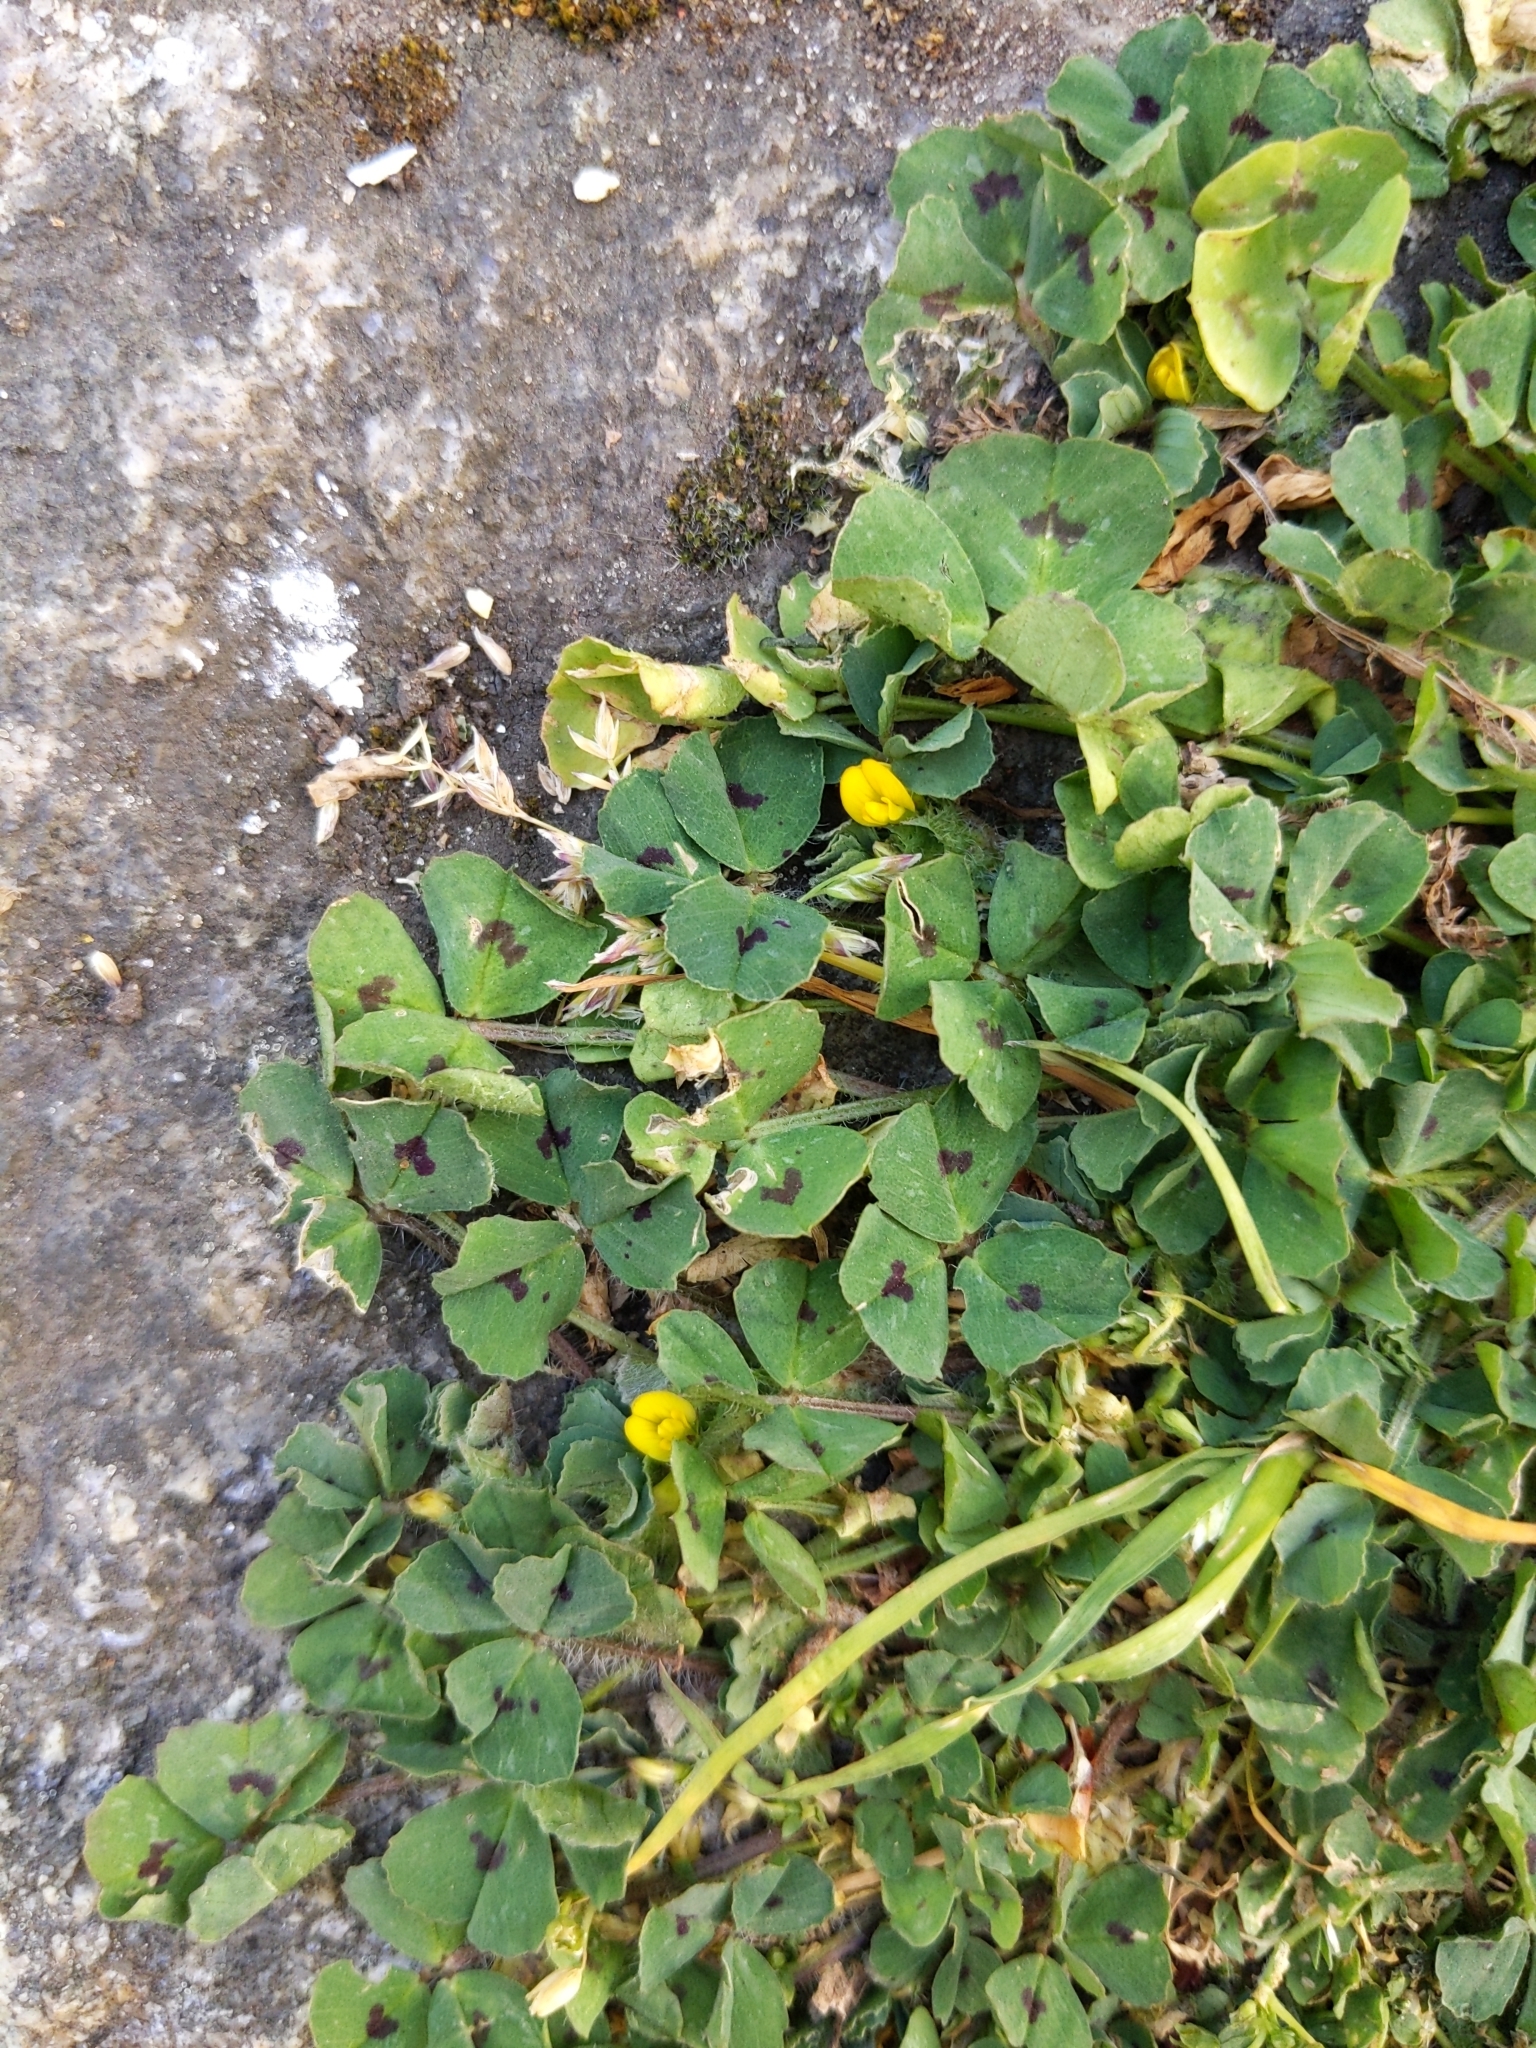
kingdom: Plantae
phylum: Tracheophyta
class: Magnoliopsida
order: Fabales
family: Fabaceae
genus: Medicago
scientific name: Medicago arabica
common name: Spotted medick
